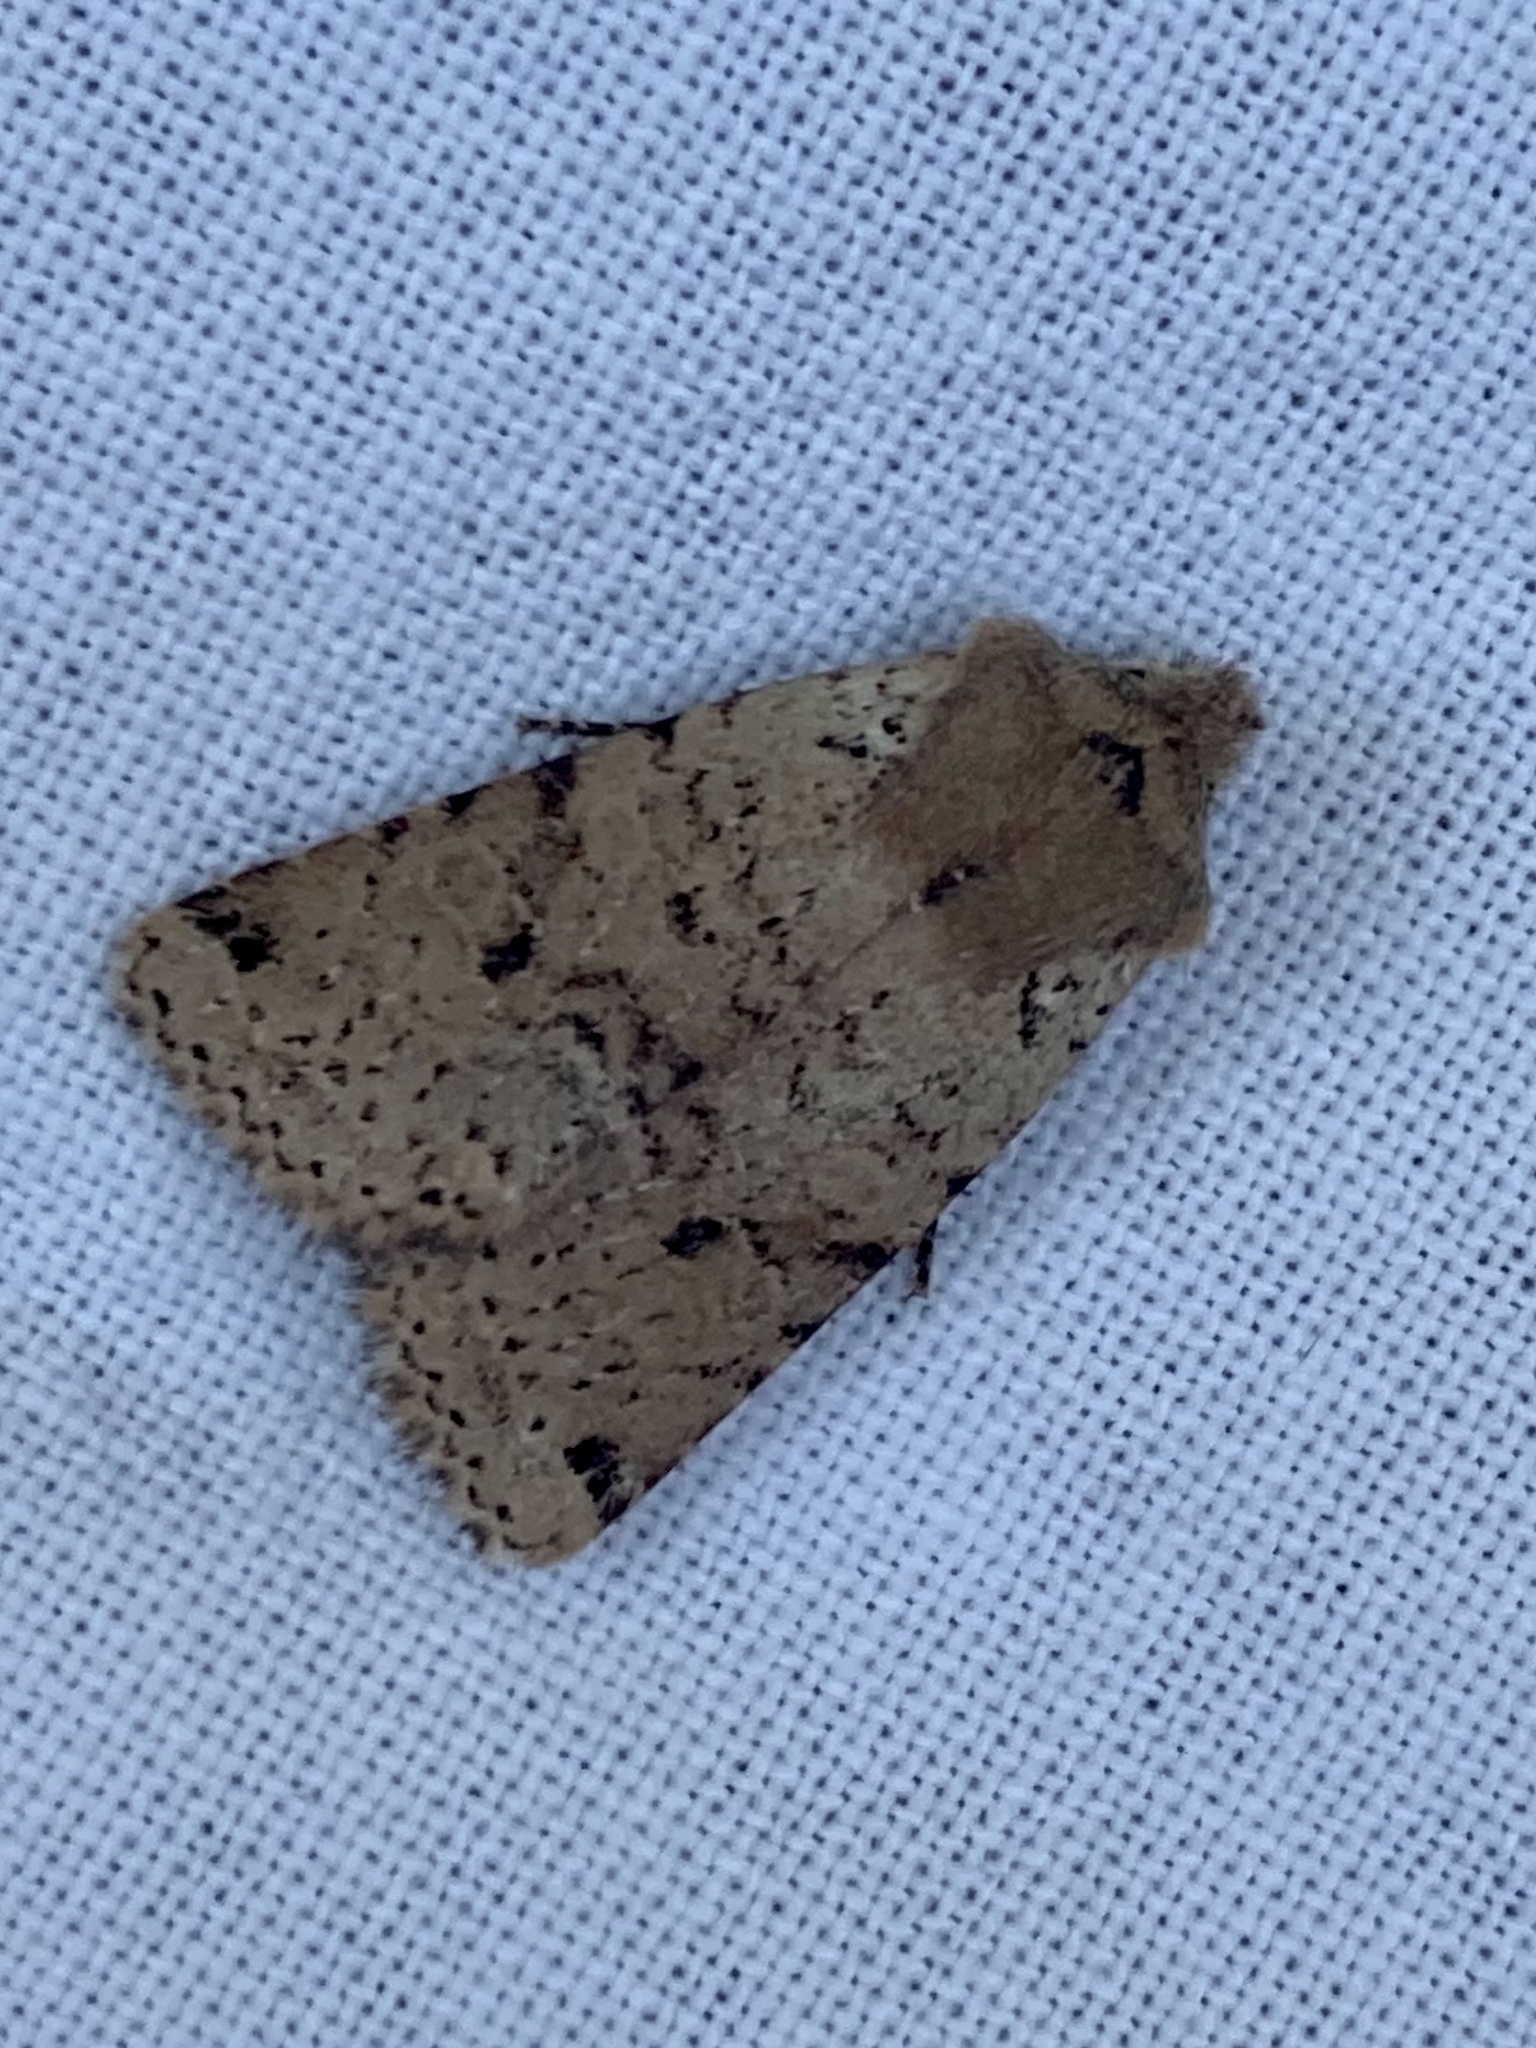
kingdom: Animalia
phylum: Arthropoda
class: Insecta
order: Lepidoptera
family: Noctuidae
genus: Agrochola
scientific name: Agrochola ruticilla
